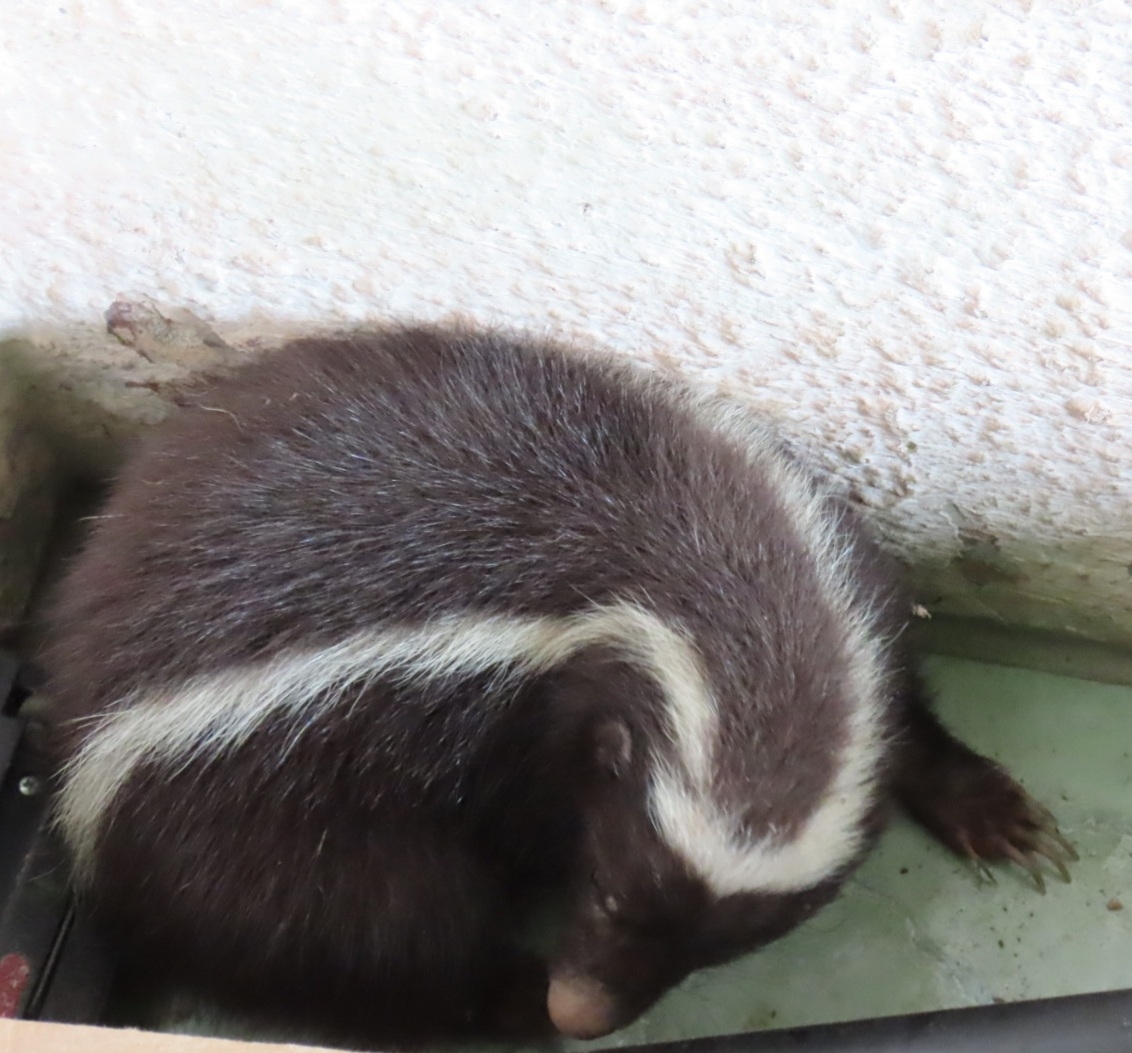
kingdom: Animalia
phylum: Chordata
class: Mammalia
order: Carnivora
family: Mephitidae
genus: Conepatus
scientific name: Conepatus chinga
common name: Molina's hog-nosed skunk
